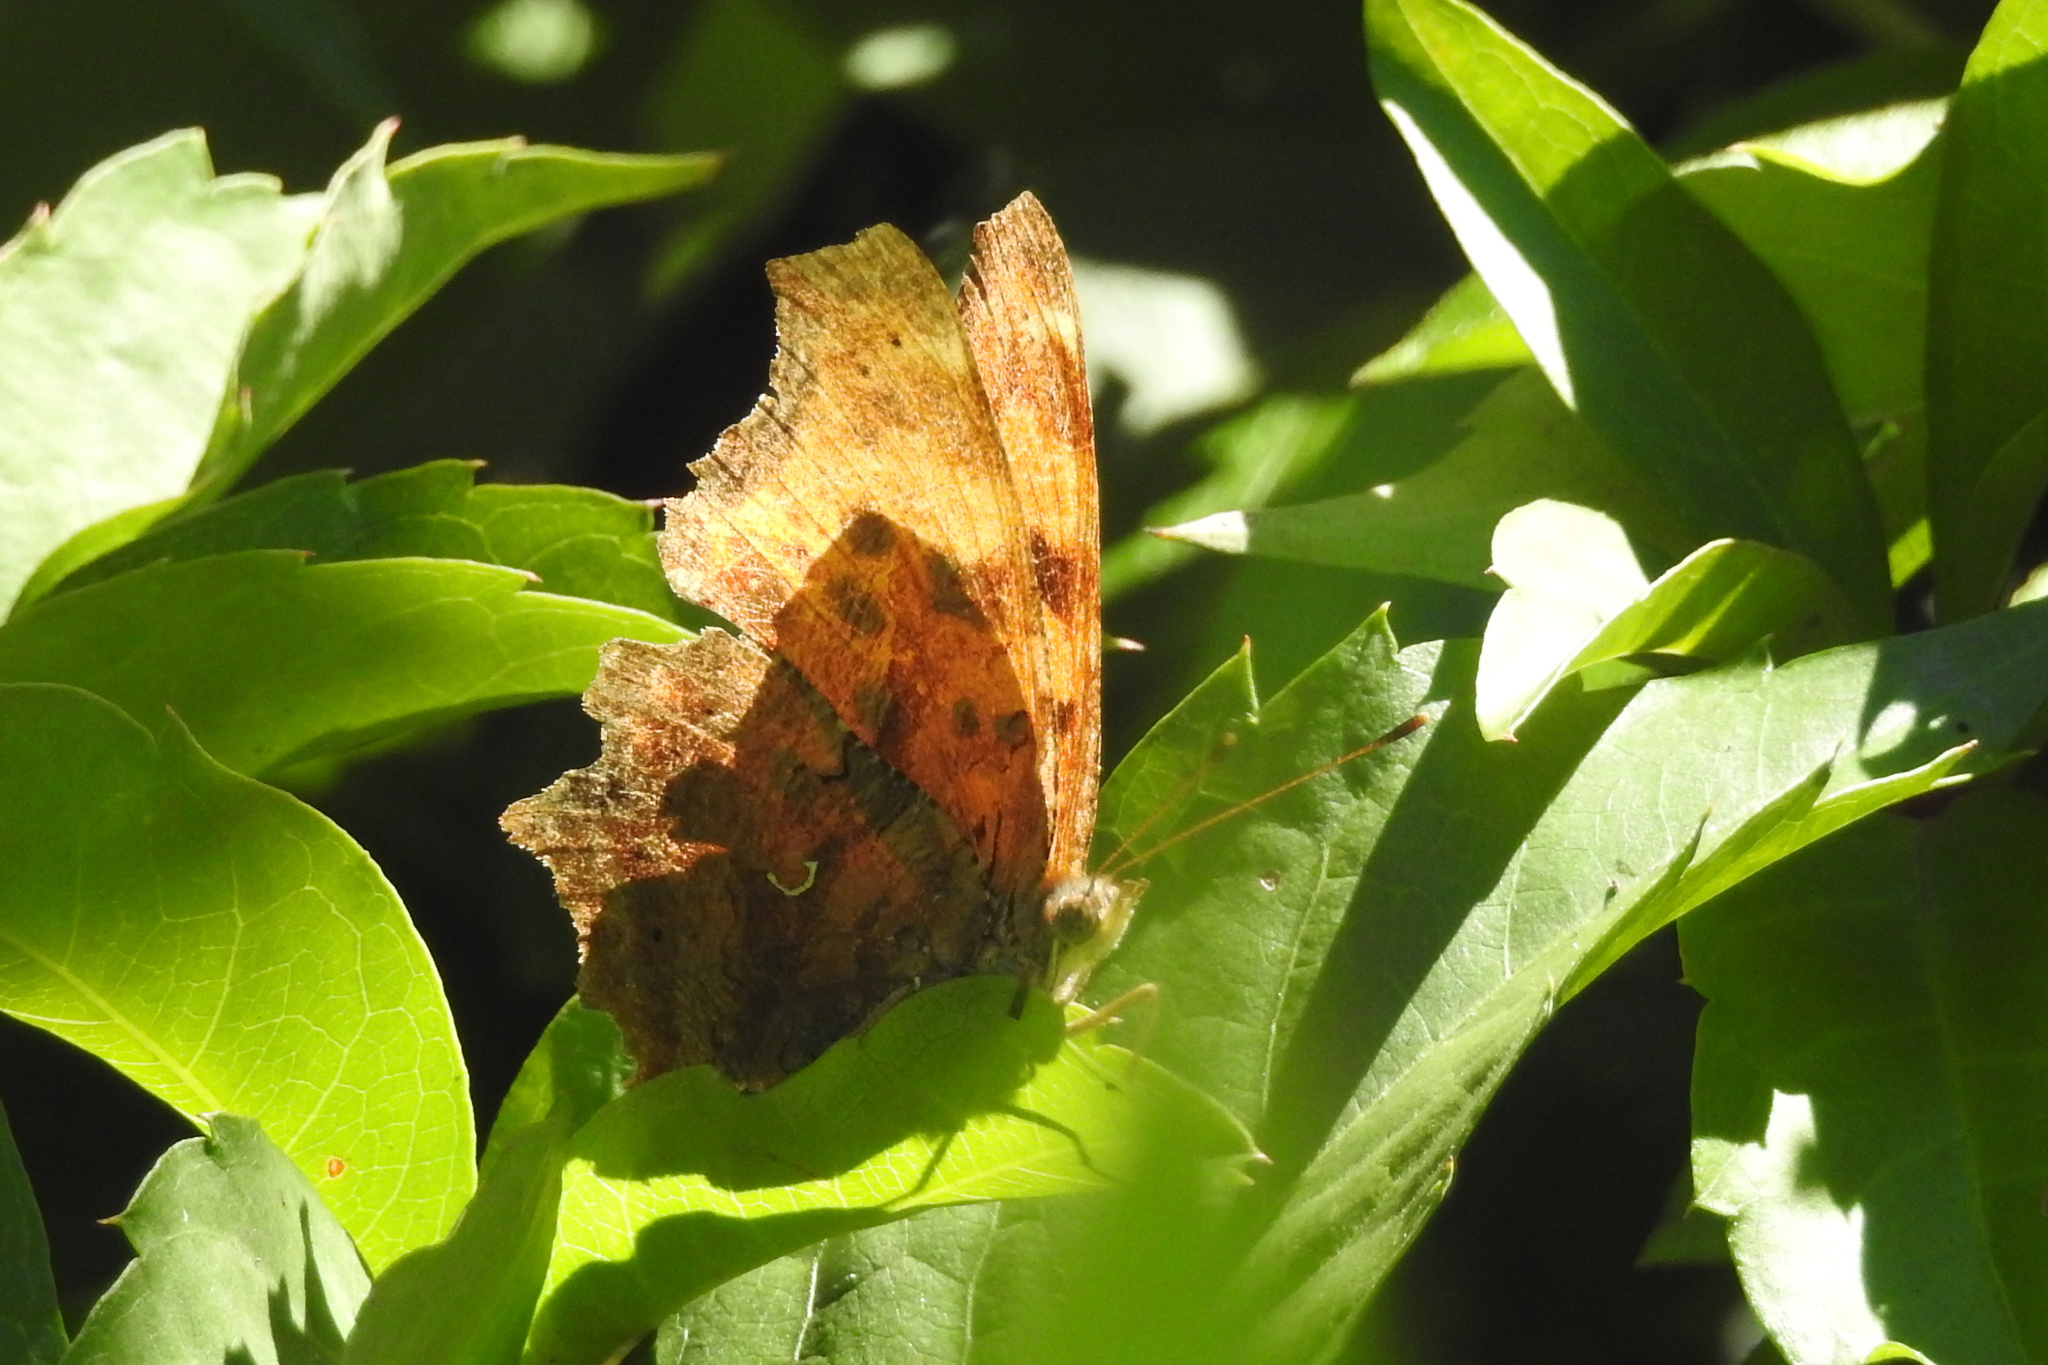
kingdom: Animalia
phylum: Arthropoda
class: Insecta
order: Lepidoptera
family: Nymphalidae
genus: Polygonia
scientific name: Polygonia comma
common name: Eastern comma
